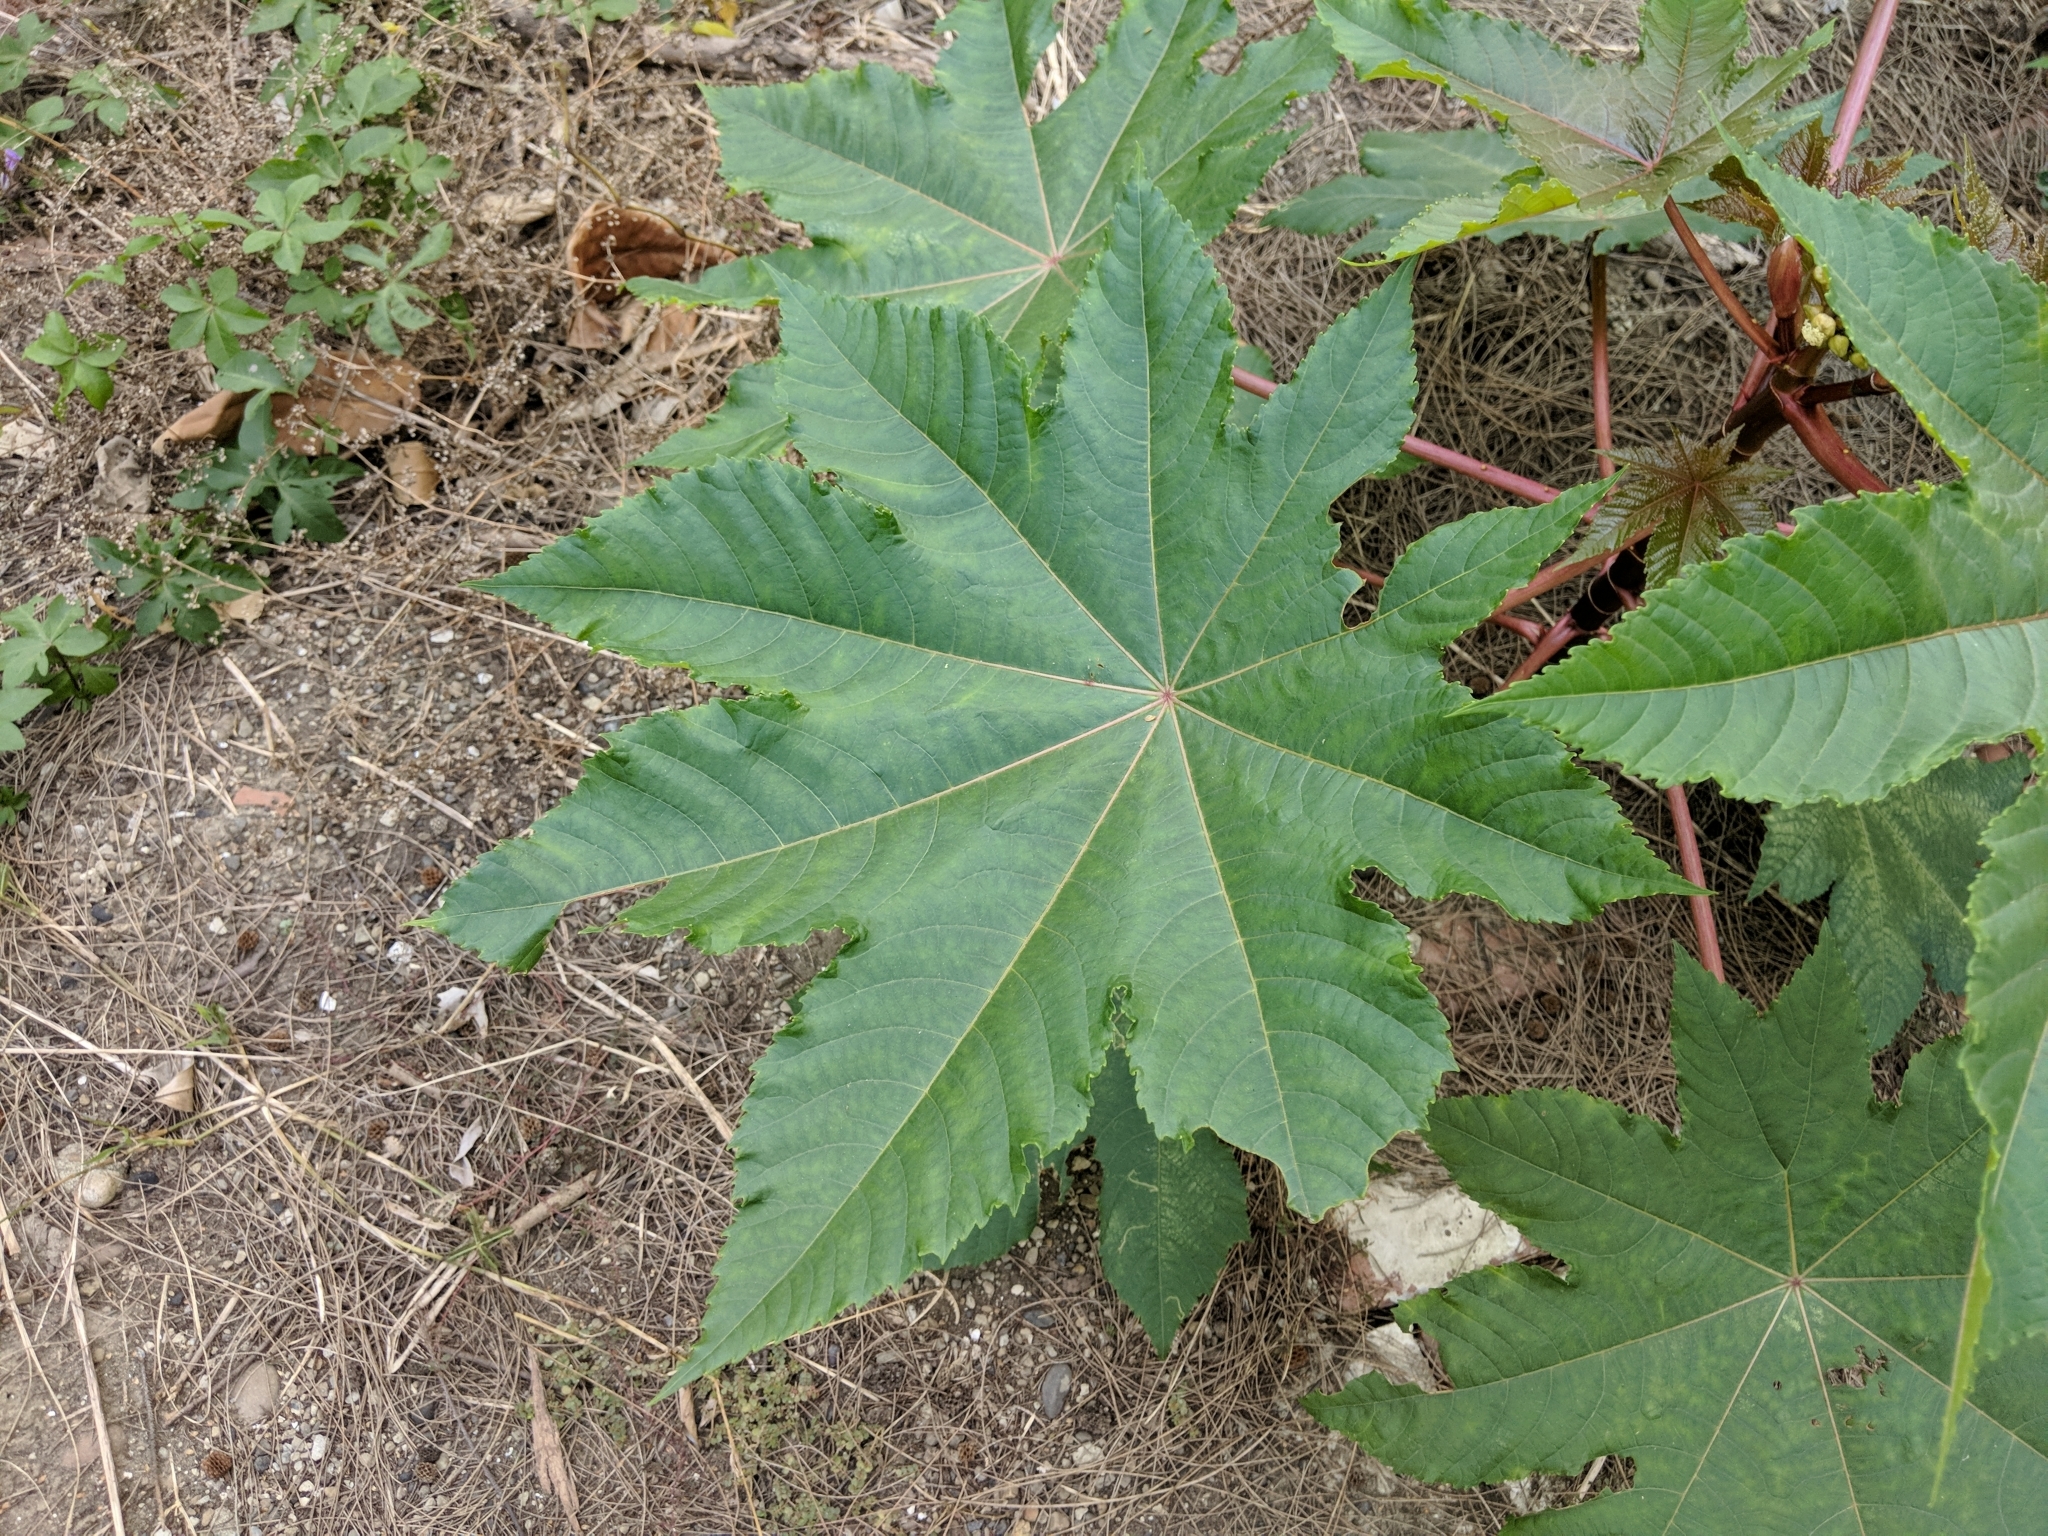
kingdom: Plantae
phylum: Tracheophyta
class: Magnoliopsida
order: Malpighiales
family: Euphorbiaceae
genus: Ricinus
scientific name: Ricinus communis
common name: Castor-oil-plant
